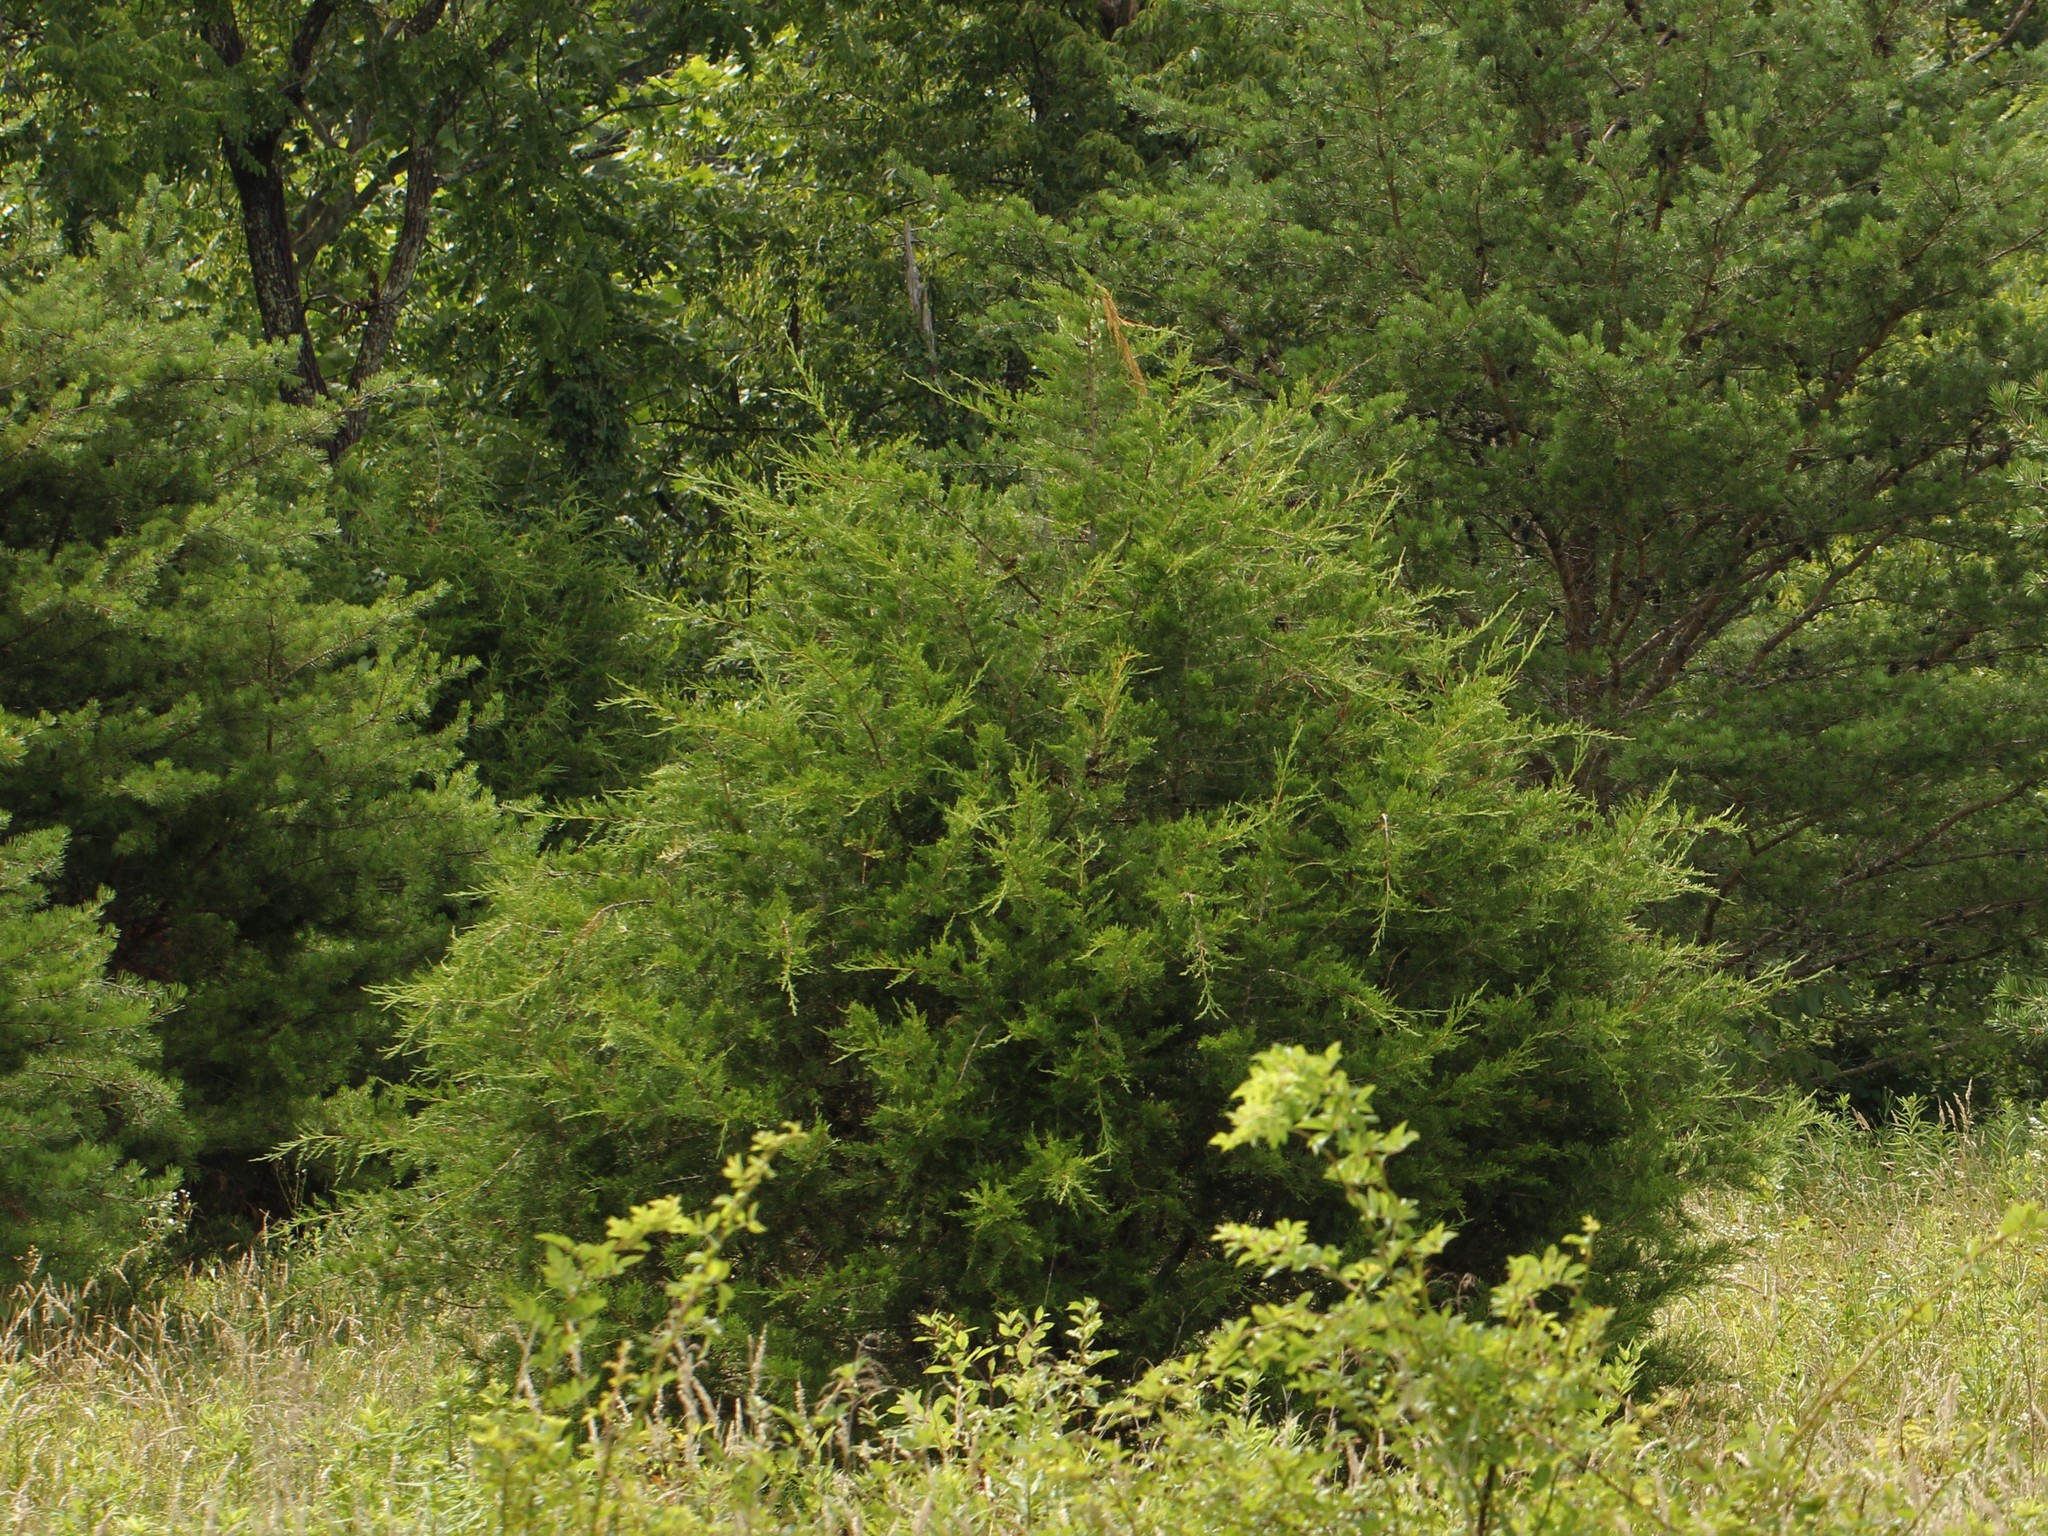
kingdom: Plantae
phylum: Tracheophyta
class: Pinopsida
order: Pinales
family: Cupressaceae
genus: Juniperus
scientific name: Juniperus virginiana
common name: Red juniper
